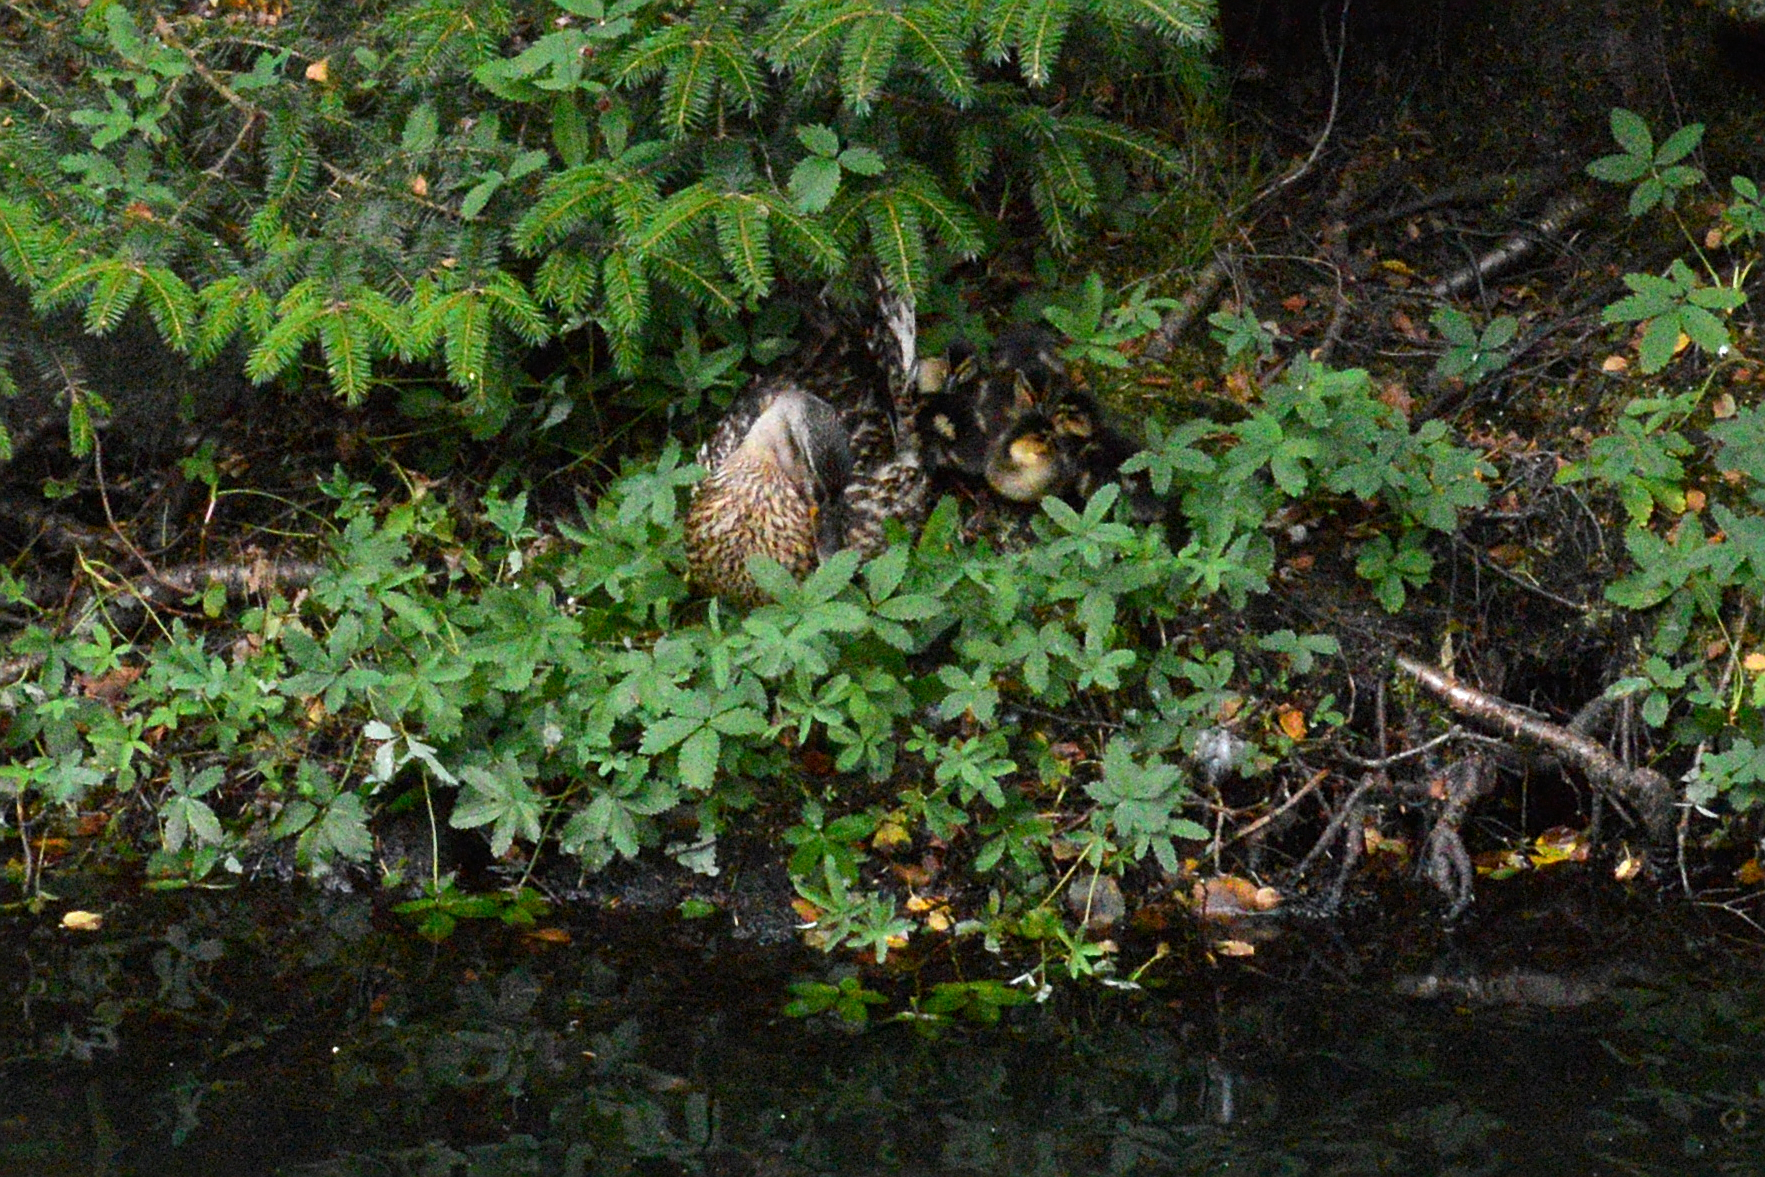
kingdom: Animalia
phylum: Chordata
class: Aves
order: Anseriformes
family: Anatidae
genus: Anas
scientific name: Anas platyrhynchos
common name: Mallard
